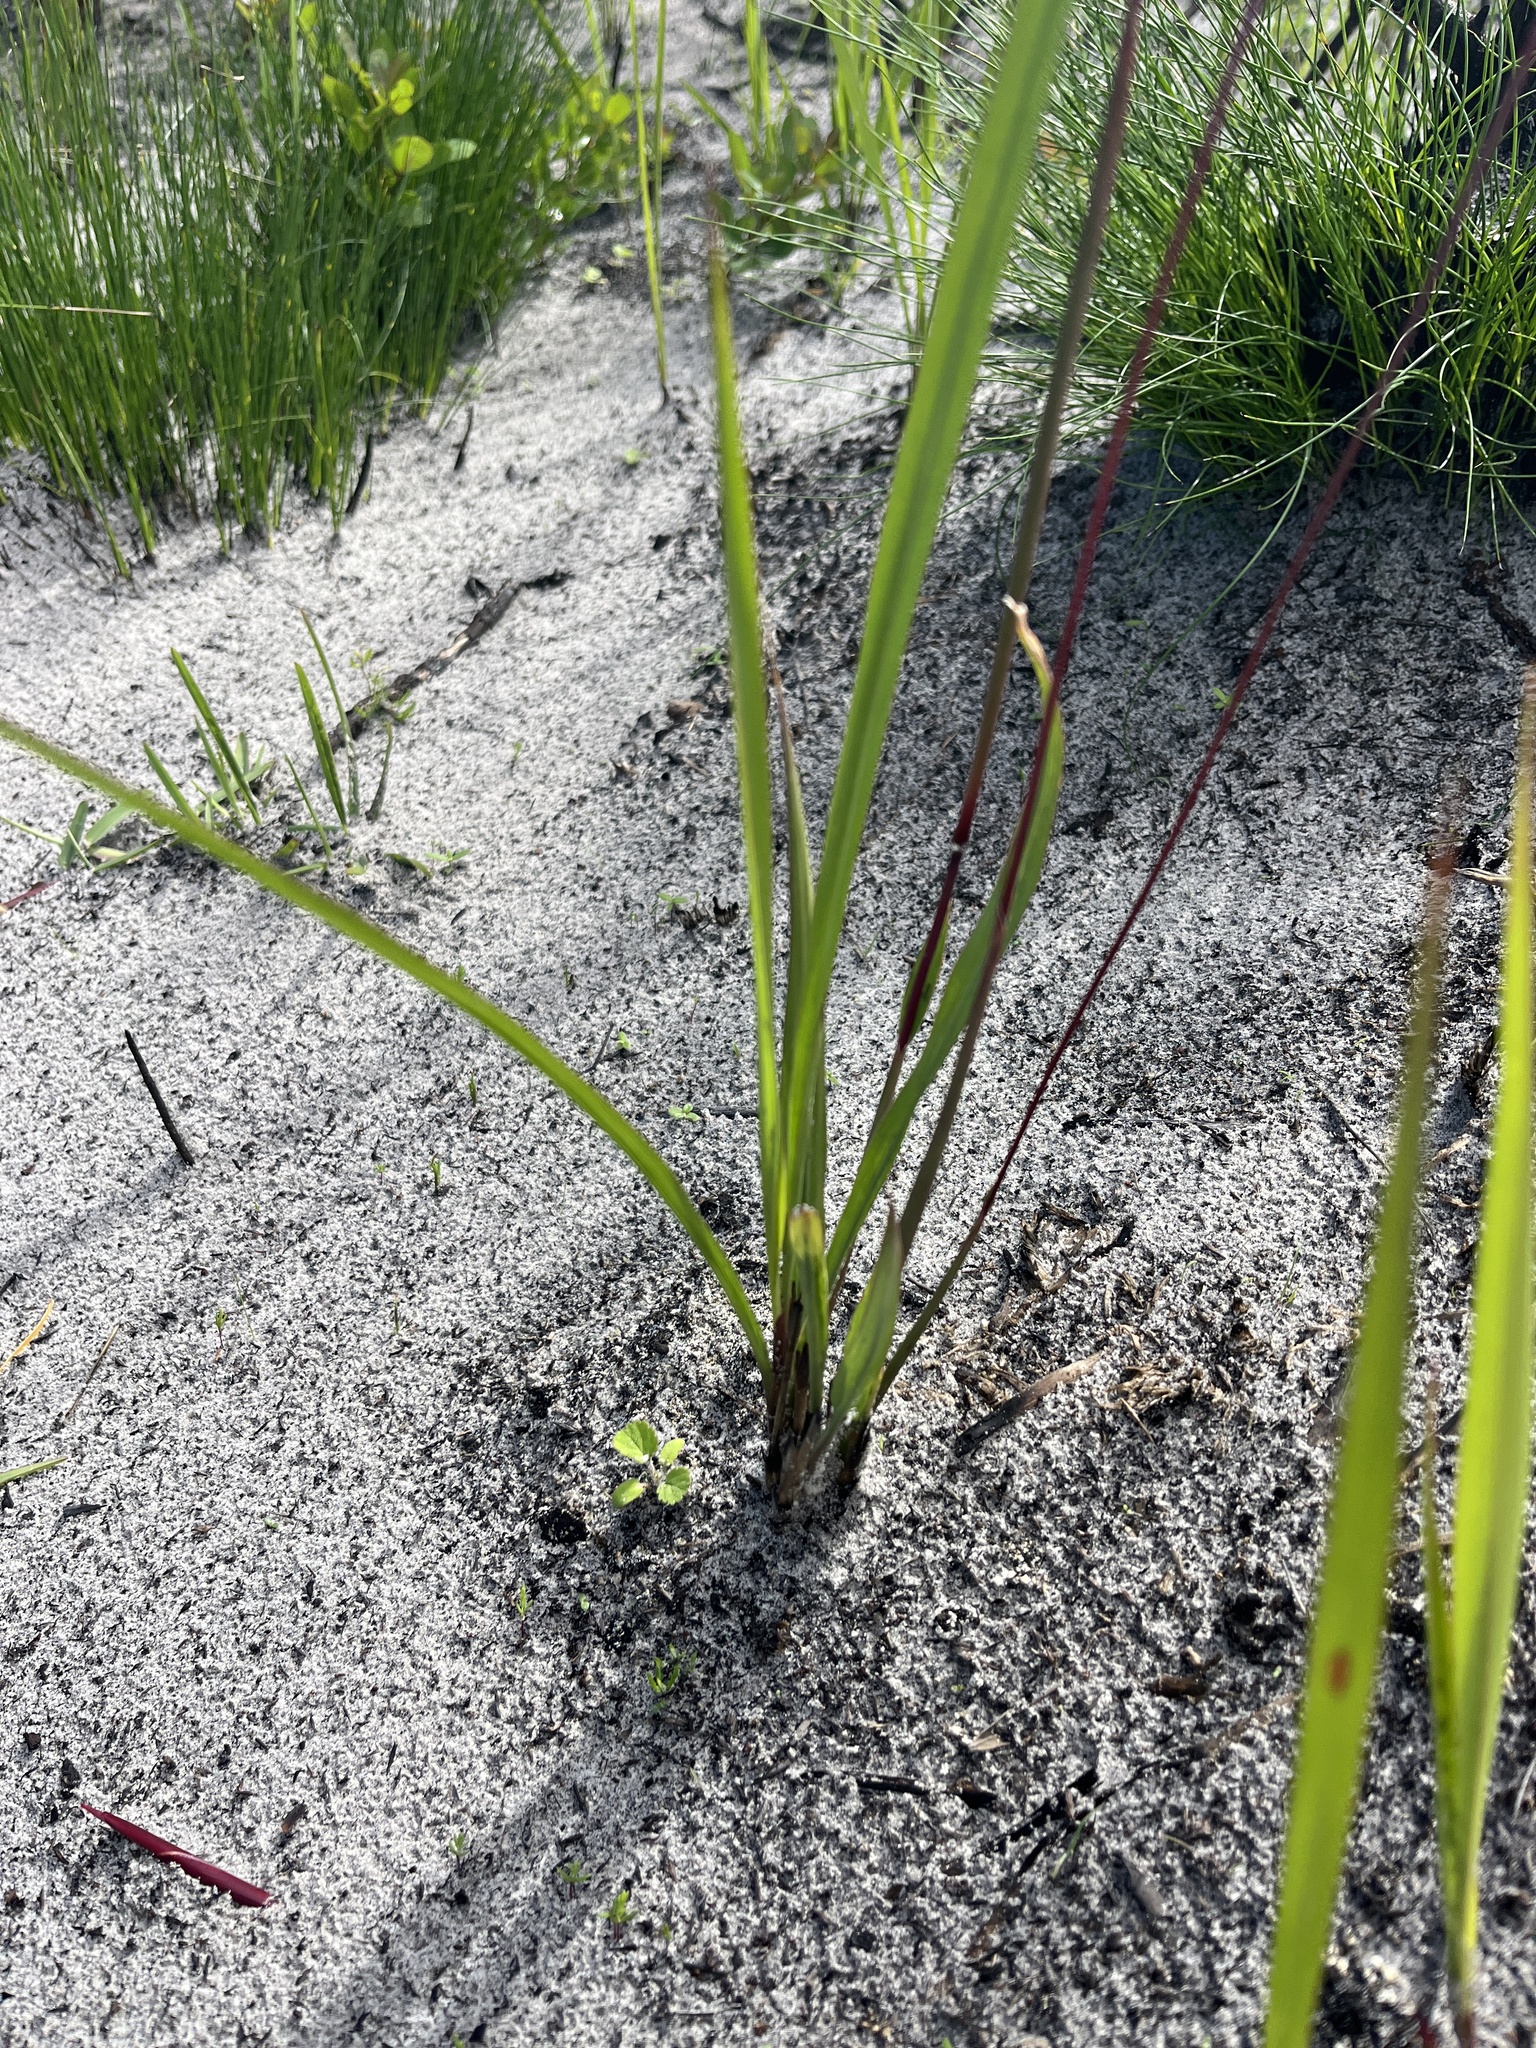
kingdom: Plantae
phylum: Tracheophyta
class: Liliopsida
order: Poales
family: Poaceae
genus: Imperata
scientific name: Imperata cylindrica
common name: Cogongrass
